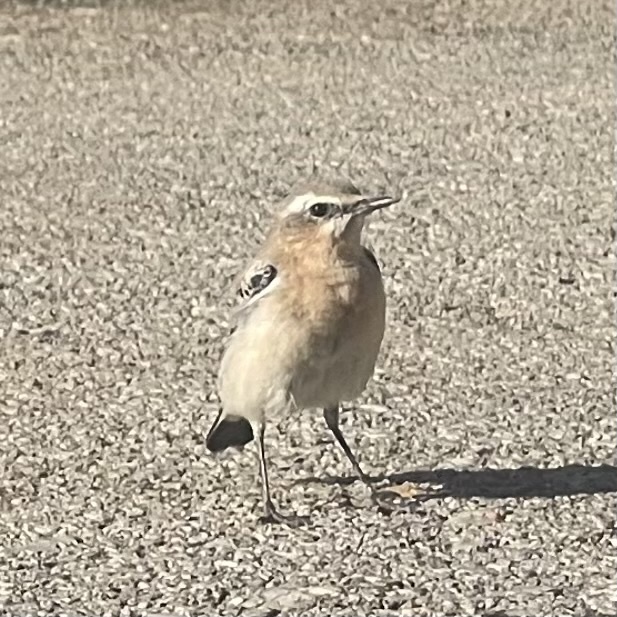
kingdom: Animalia
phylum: Chordata
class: Aves
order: Passeriformes
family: Muscicapidae
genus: Oenanthe
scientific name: Oenanthe oenanthe
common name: Northern wheatear
